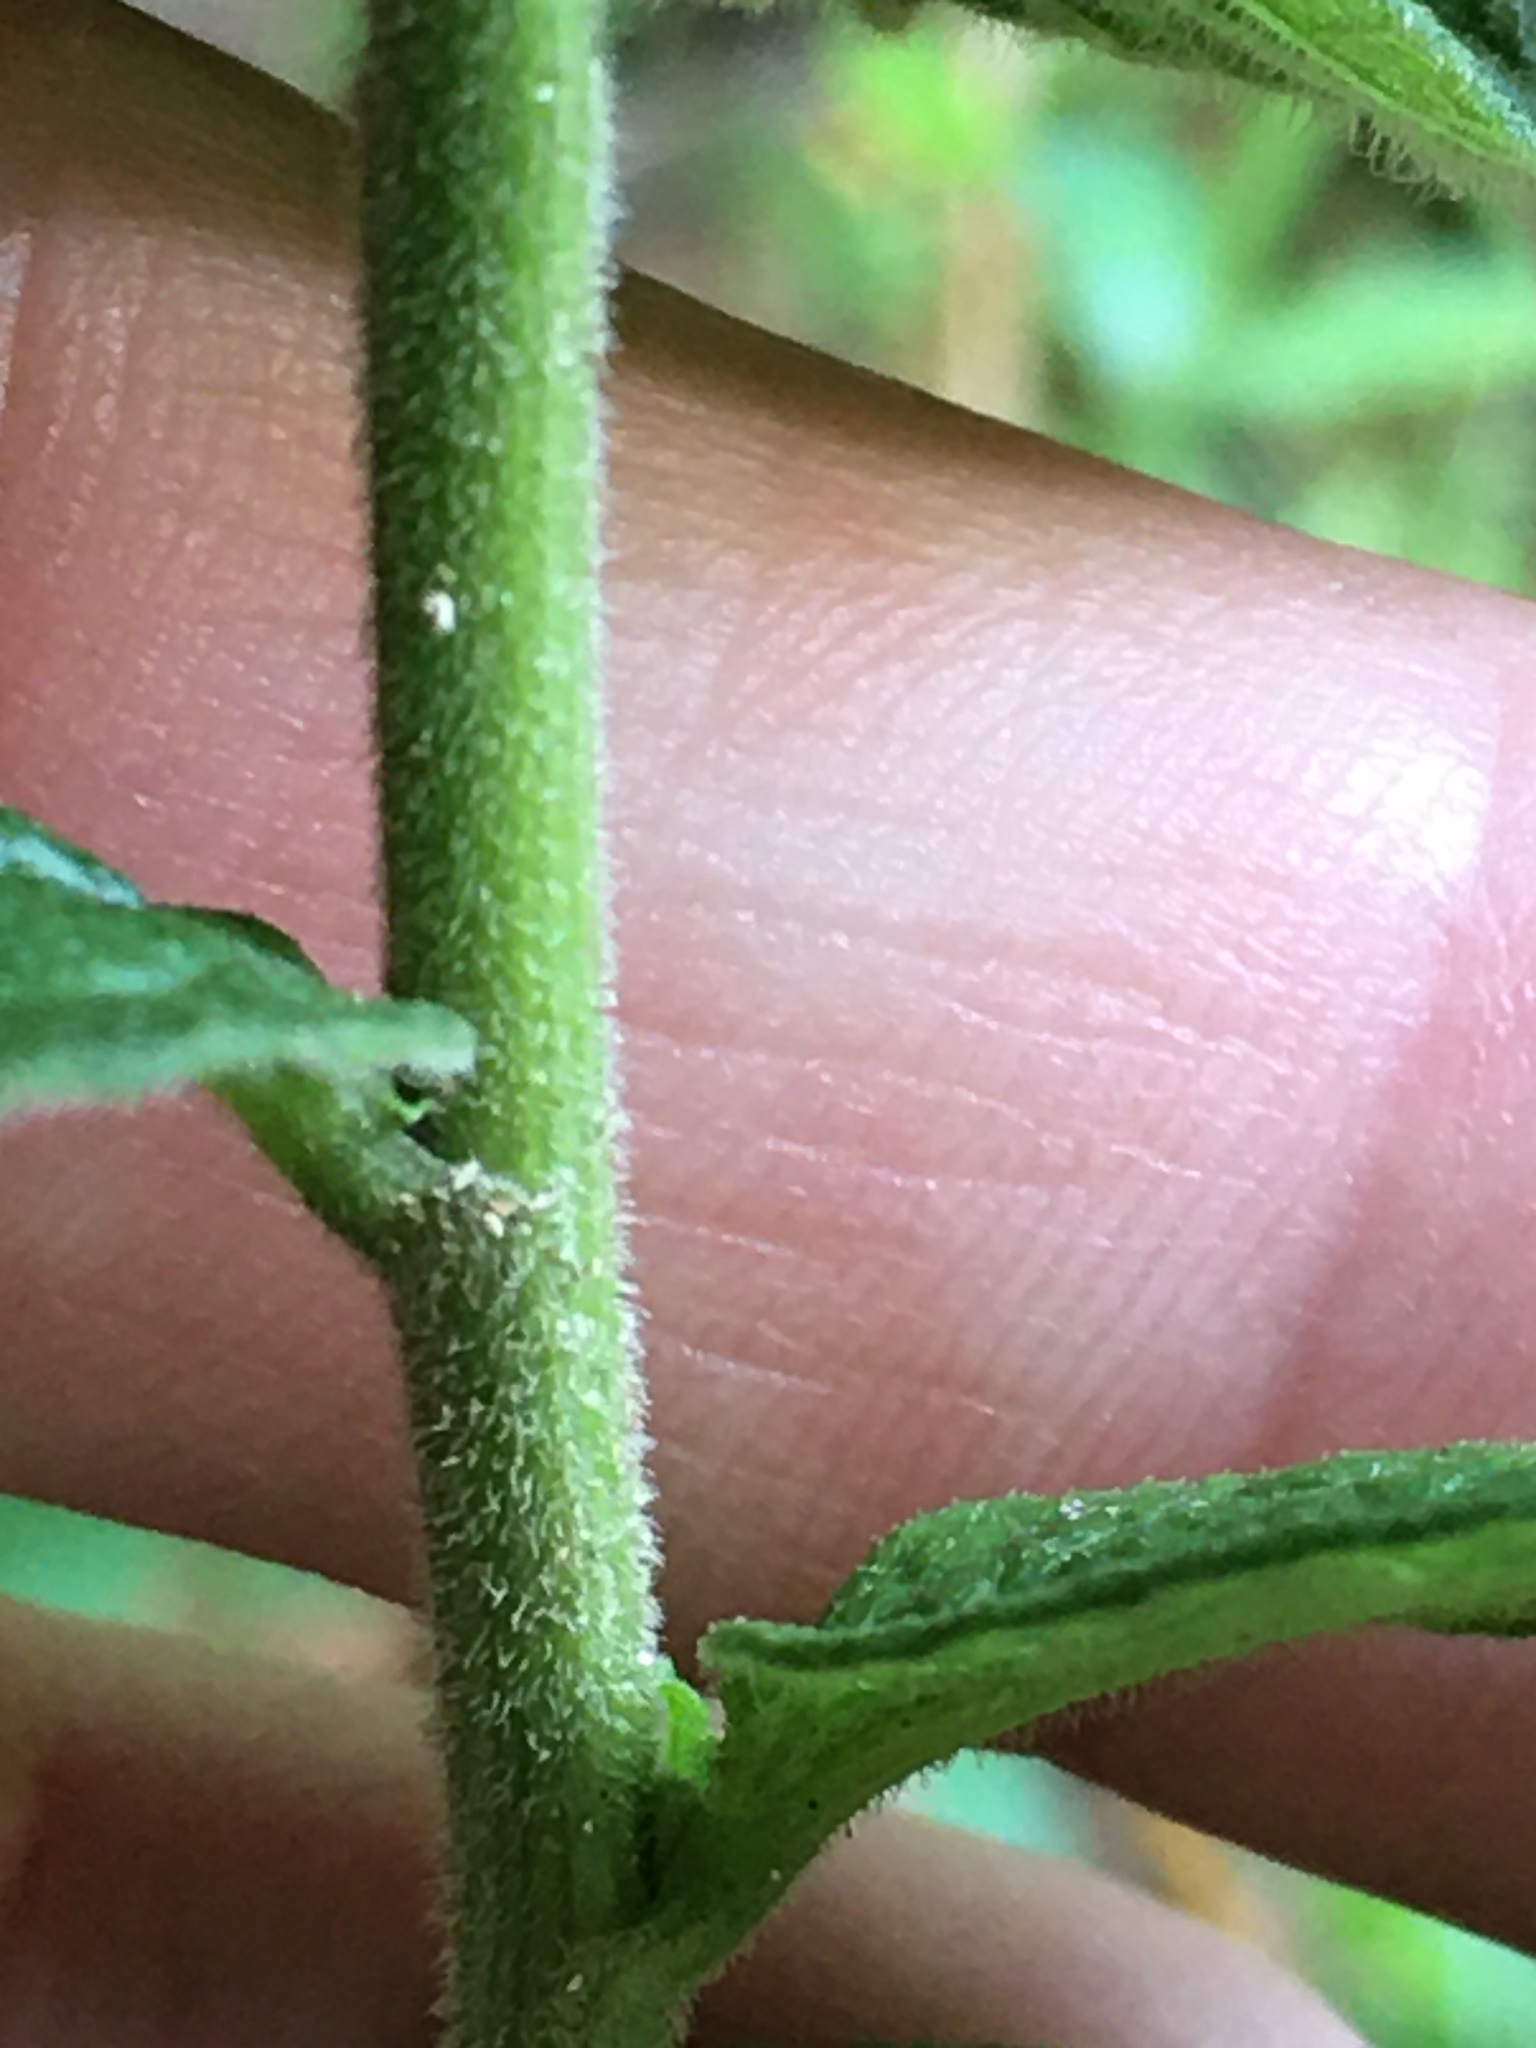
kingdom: Plantae
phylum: Tracheophyta
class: Magnoliopsida
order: Asterales
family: Asteraceae
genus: Solidago
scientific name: Solidago rugosa
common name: Rough-stemmed goldenrod
